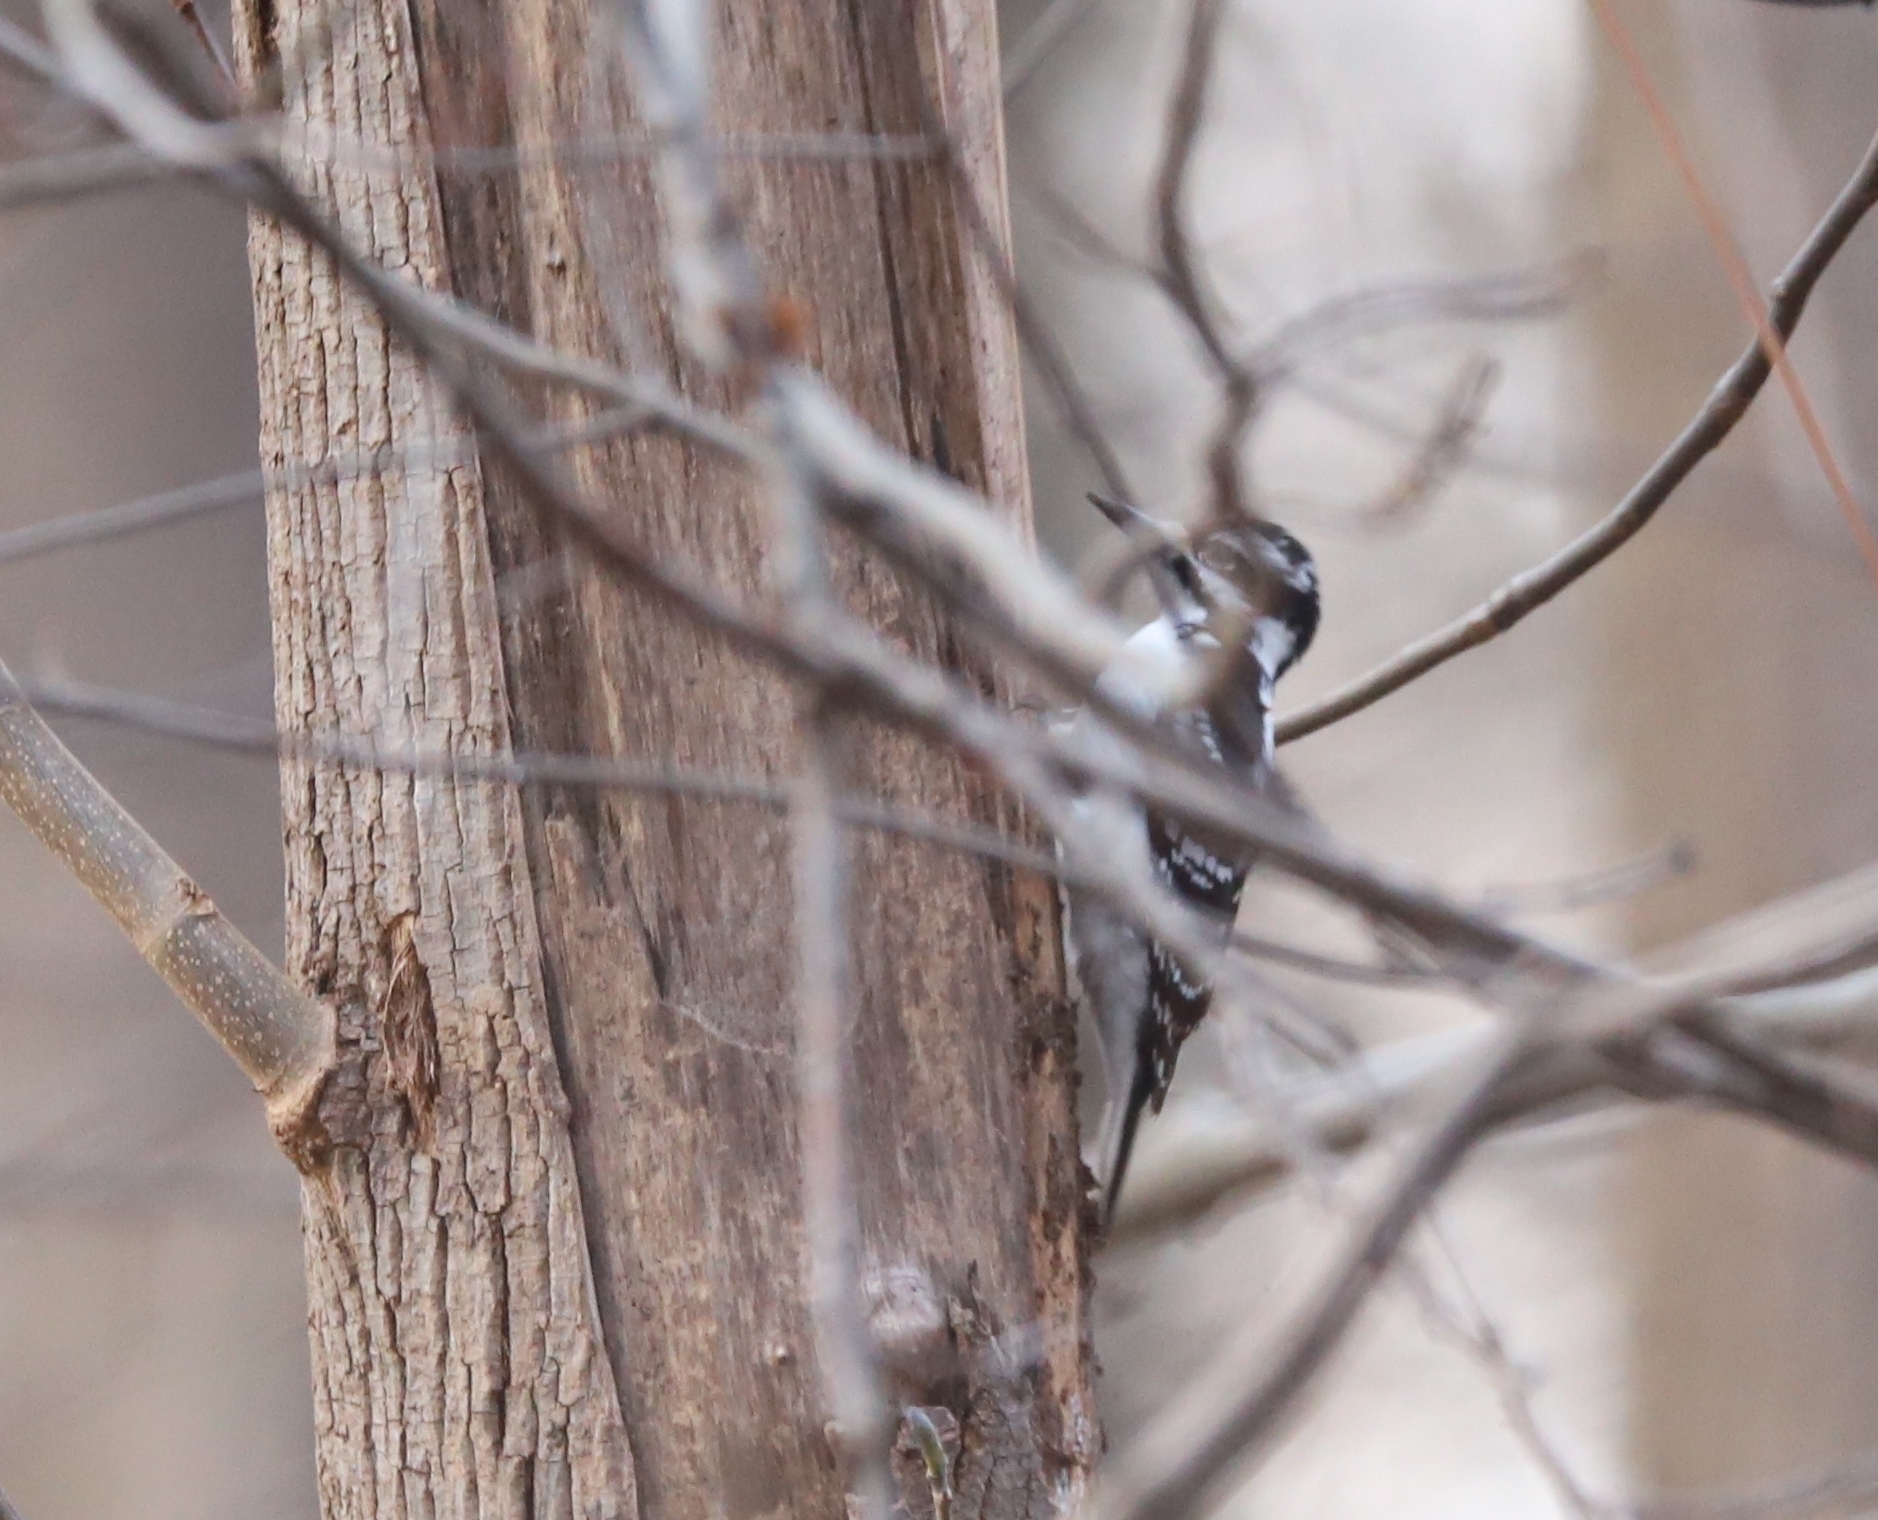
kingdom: Animalia
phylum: Chordata
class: Aves
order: Piciformes
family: Picidae
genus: Dryobates
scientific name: Dryobates pubescens
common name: Downy woodpecker
